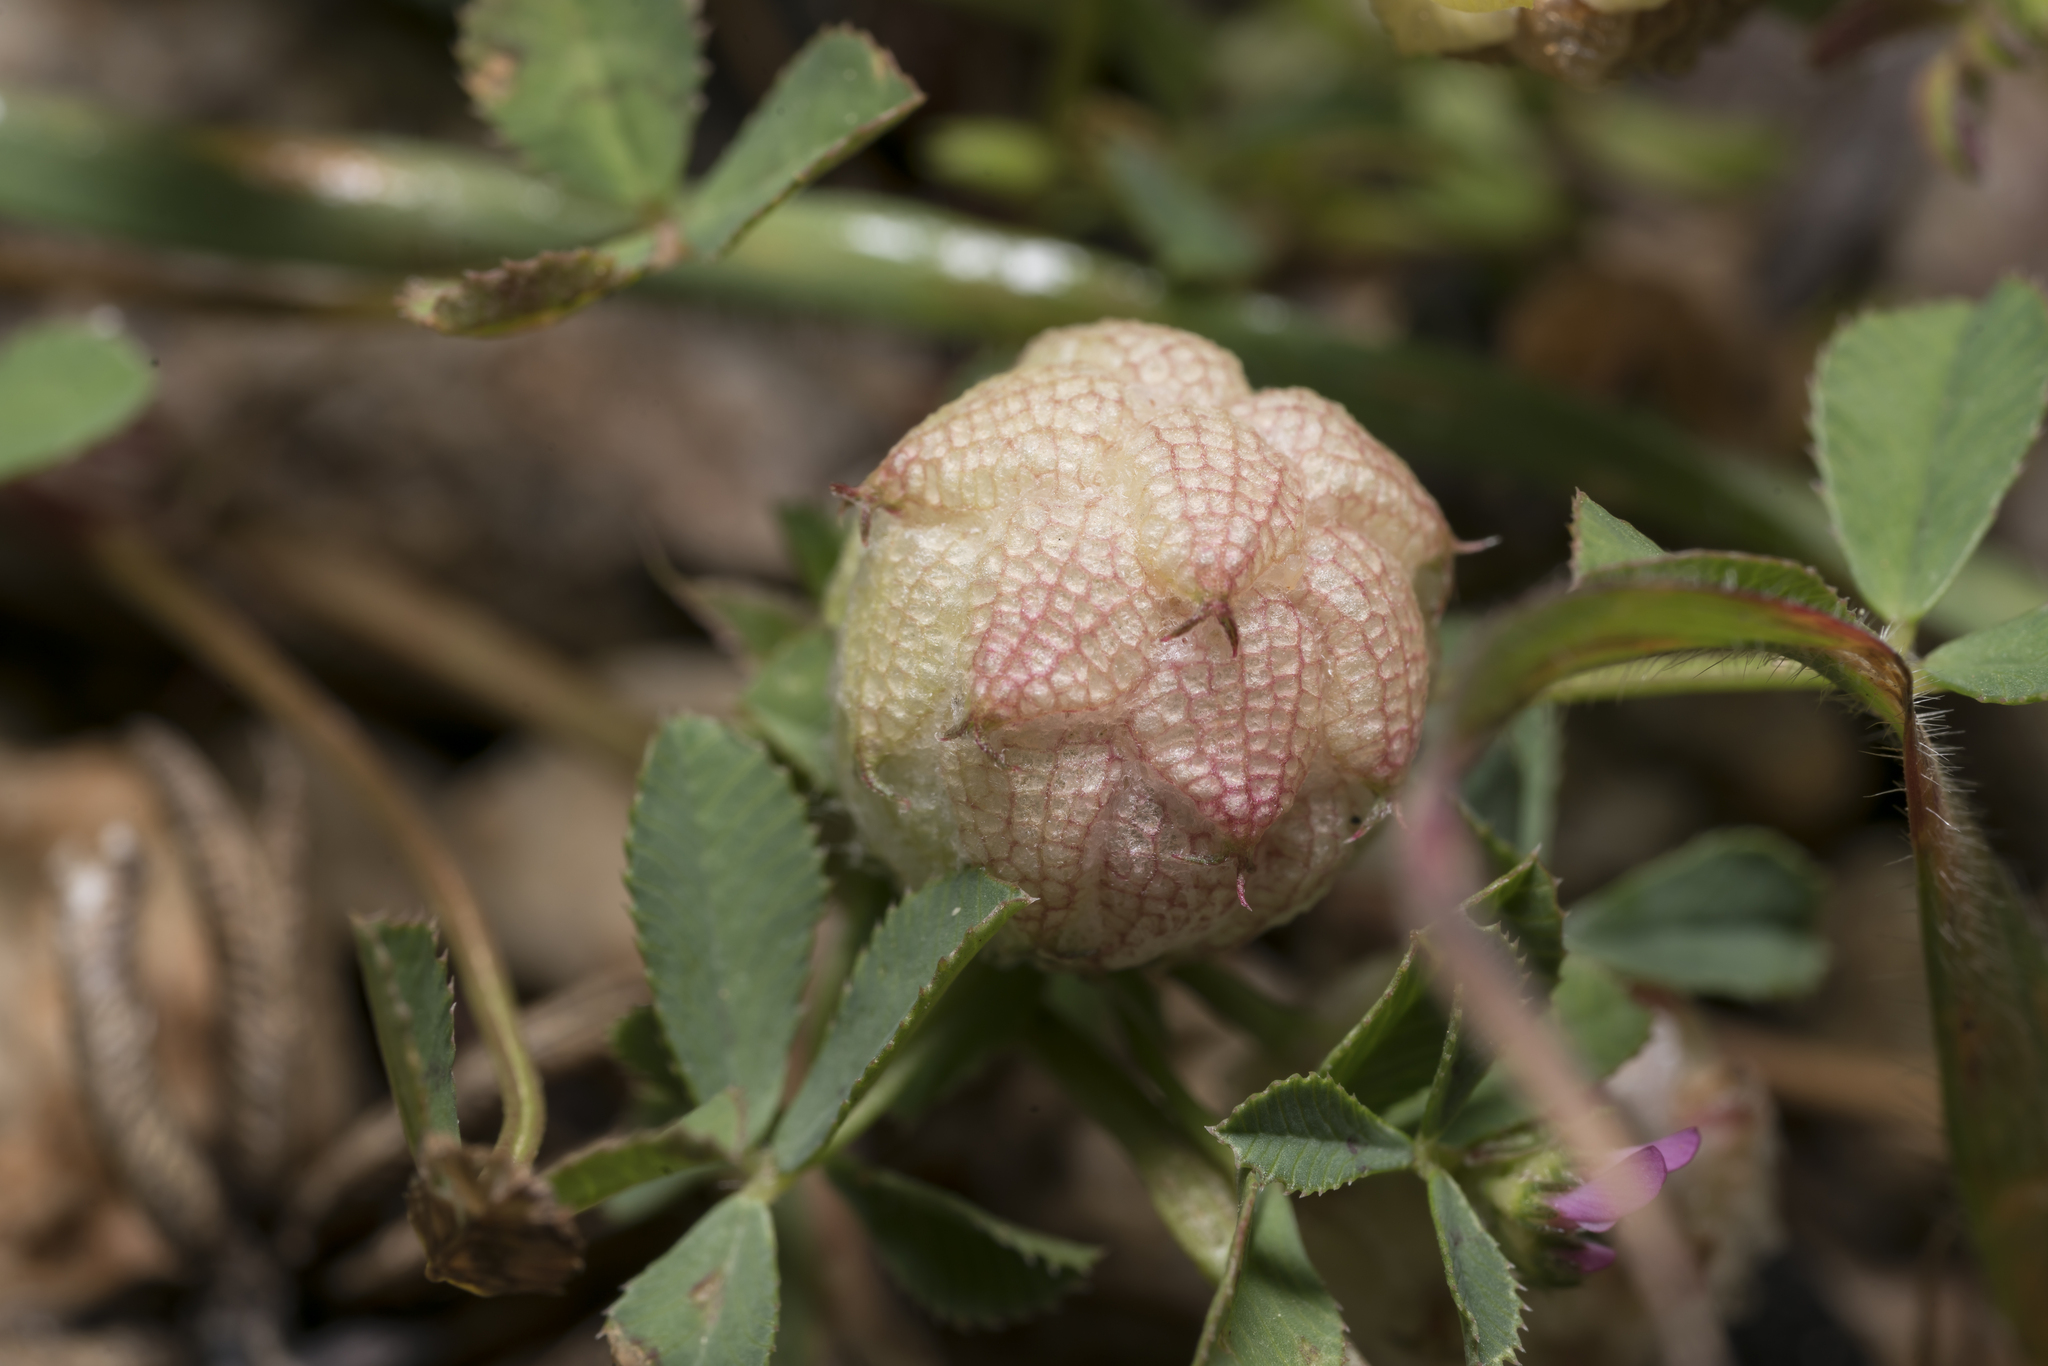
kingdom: Plantae
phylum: Tracheophyta
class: Magnoliopsida
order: Fabales
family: Fabaceae
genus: Trifolium
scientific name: Trifolium tomentosum
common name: Woolly clover
